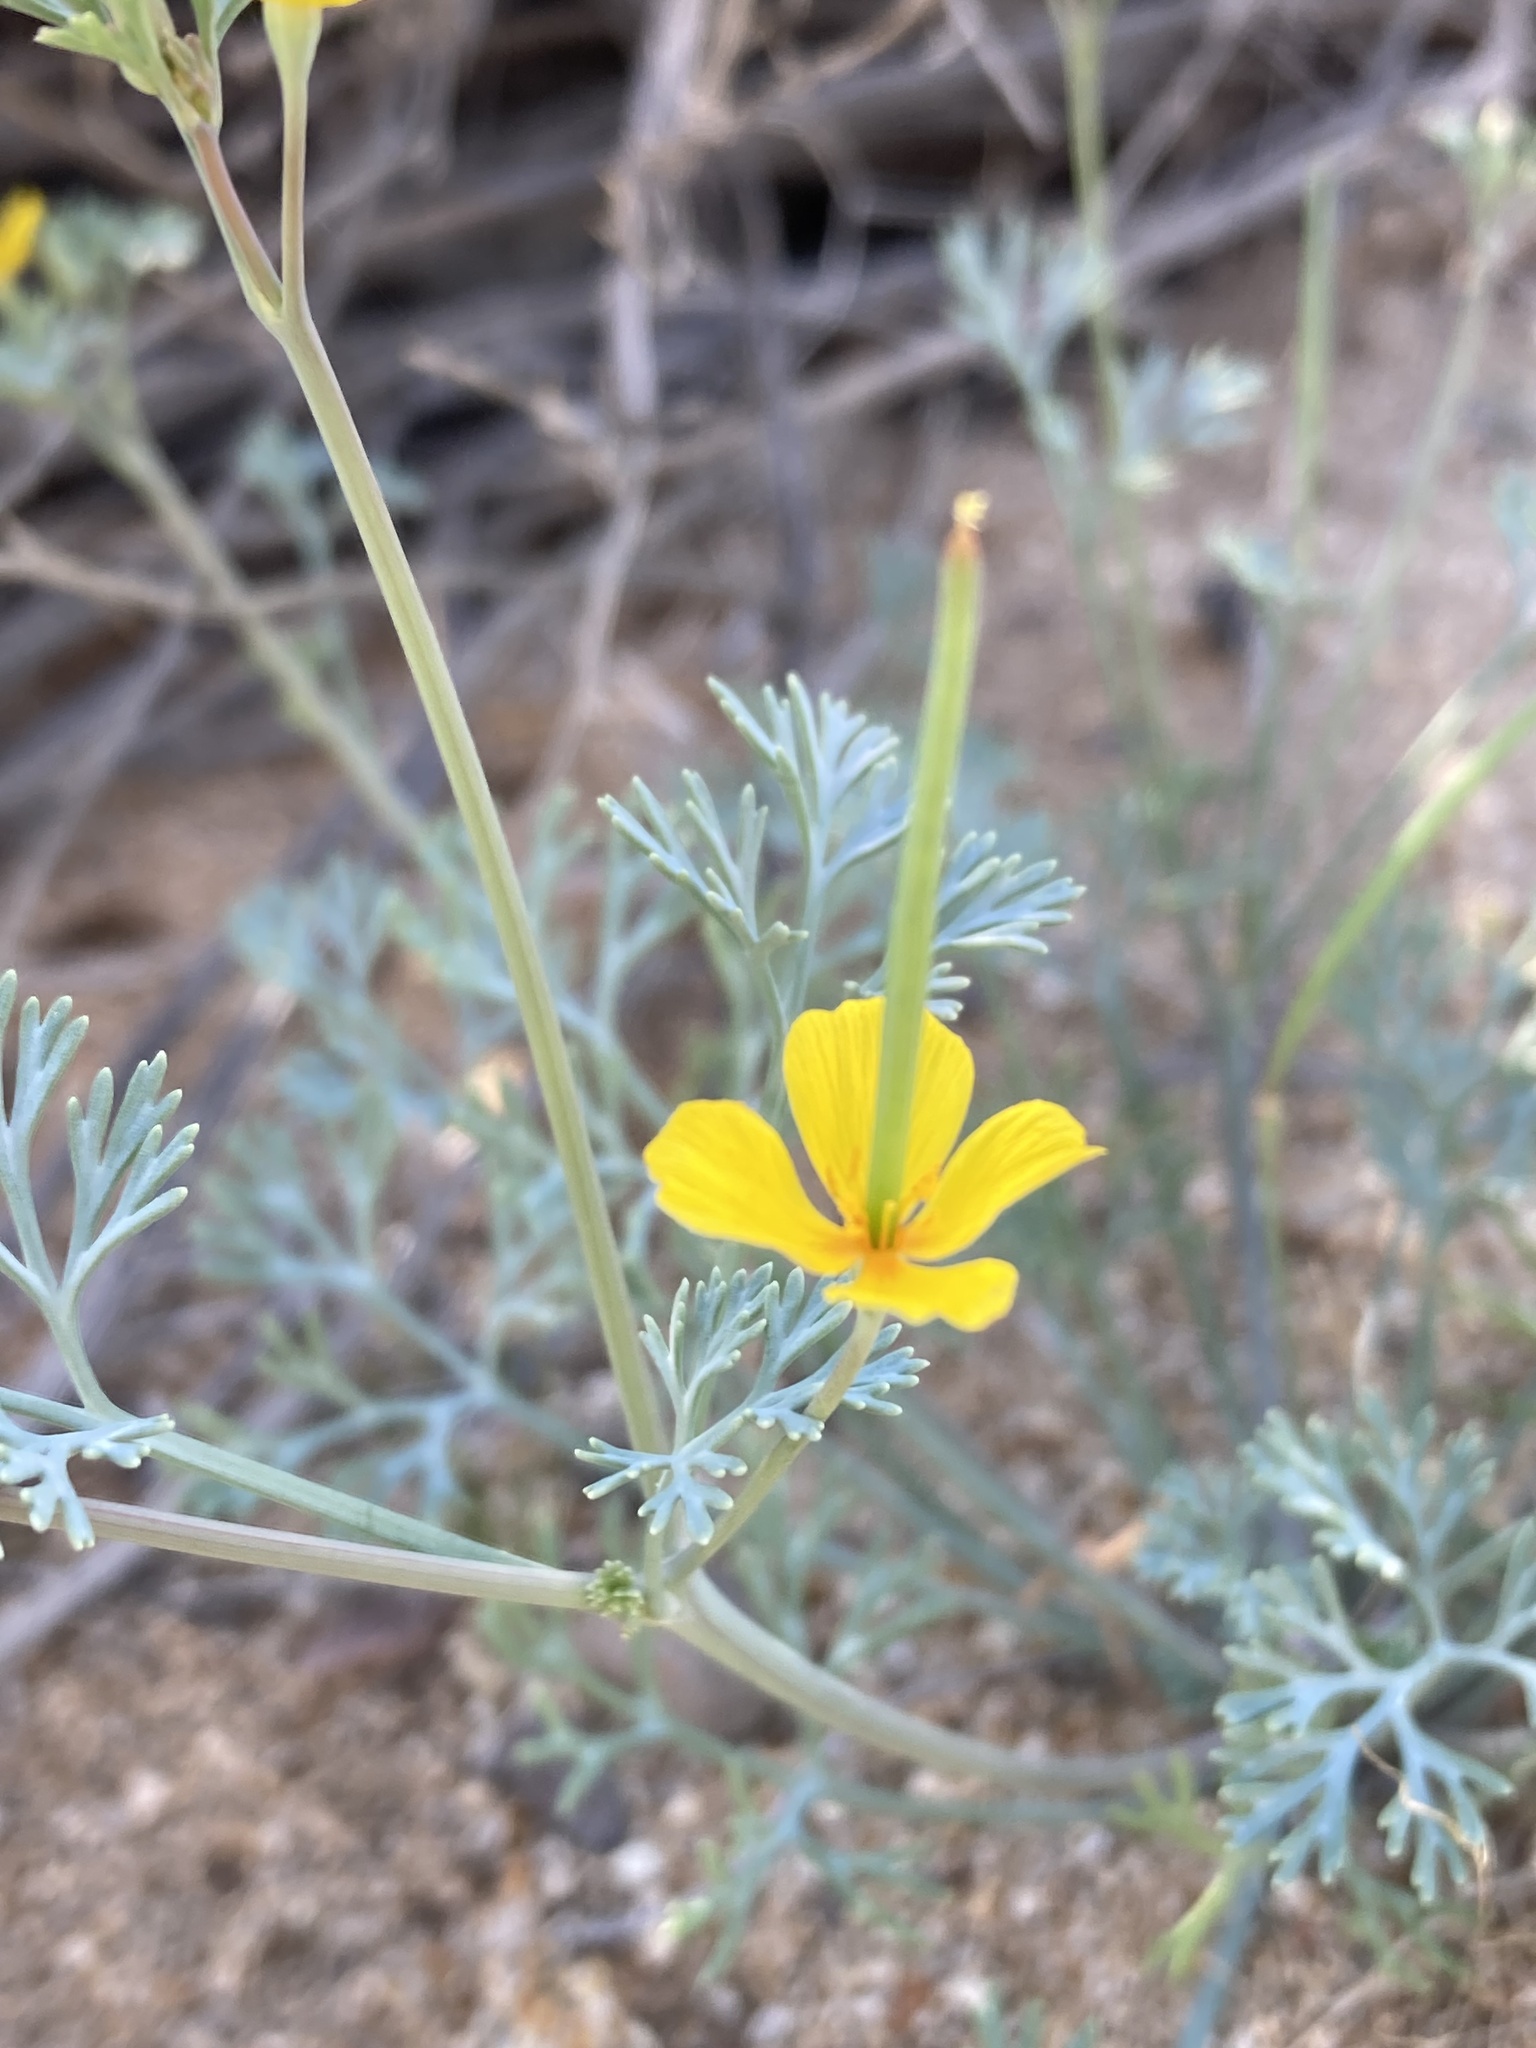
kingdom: Plantae
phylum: Tracheophyta
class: Magnoliopsida
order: Ranunculales
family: Papaveraceae
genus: Eschscholzia
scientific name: Eschscholzia minutiflora
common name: Small-flower california-poppy
